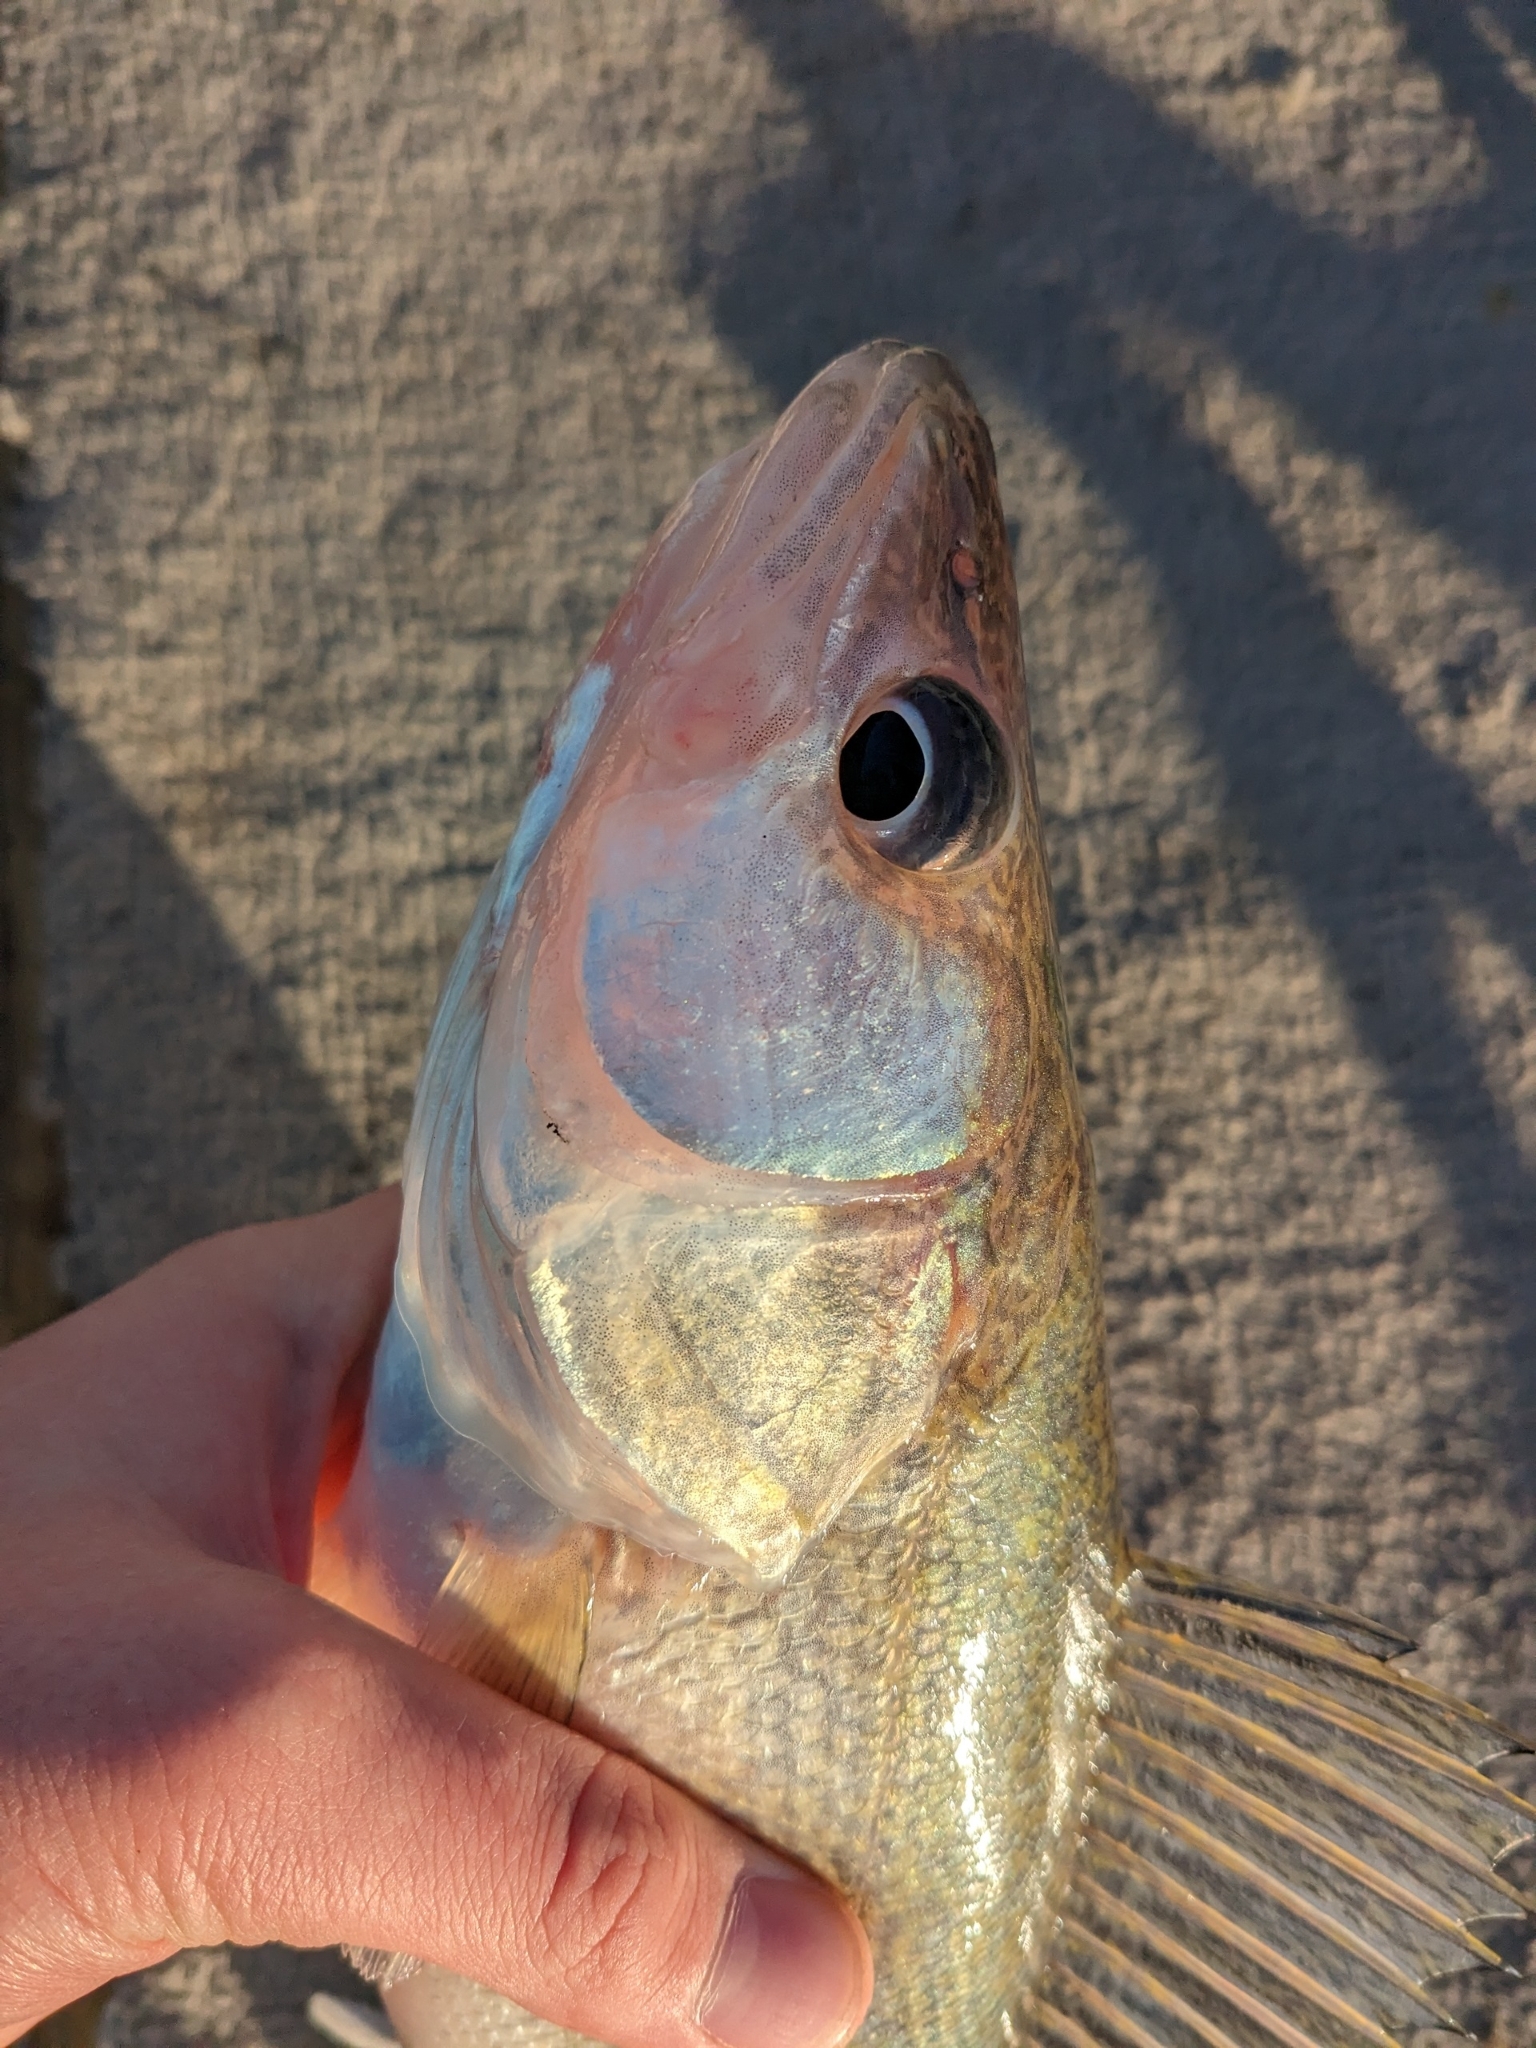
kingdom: Animalia
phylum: Chordata
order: Perciformes
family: Percidae
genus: Sander
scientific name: Sander vitreus
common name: Walleye
